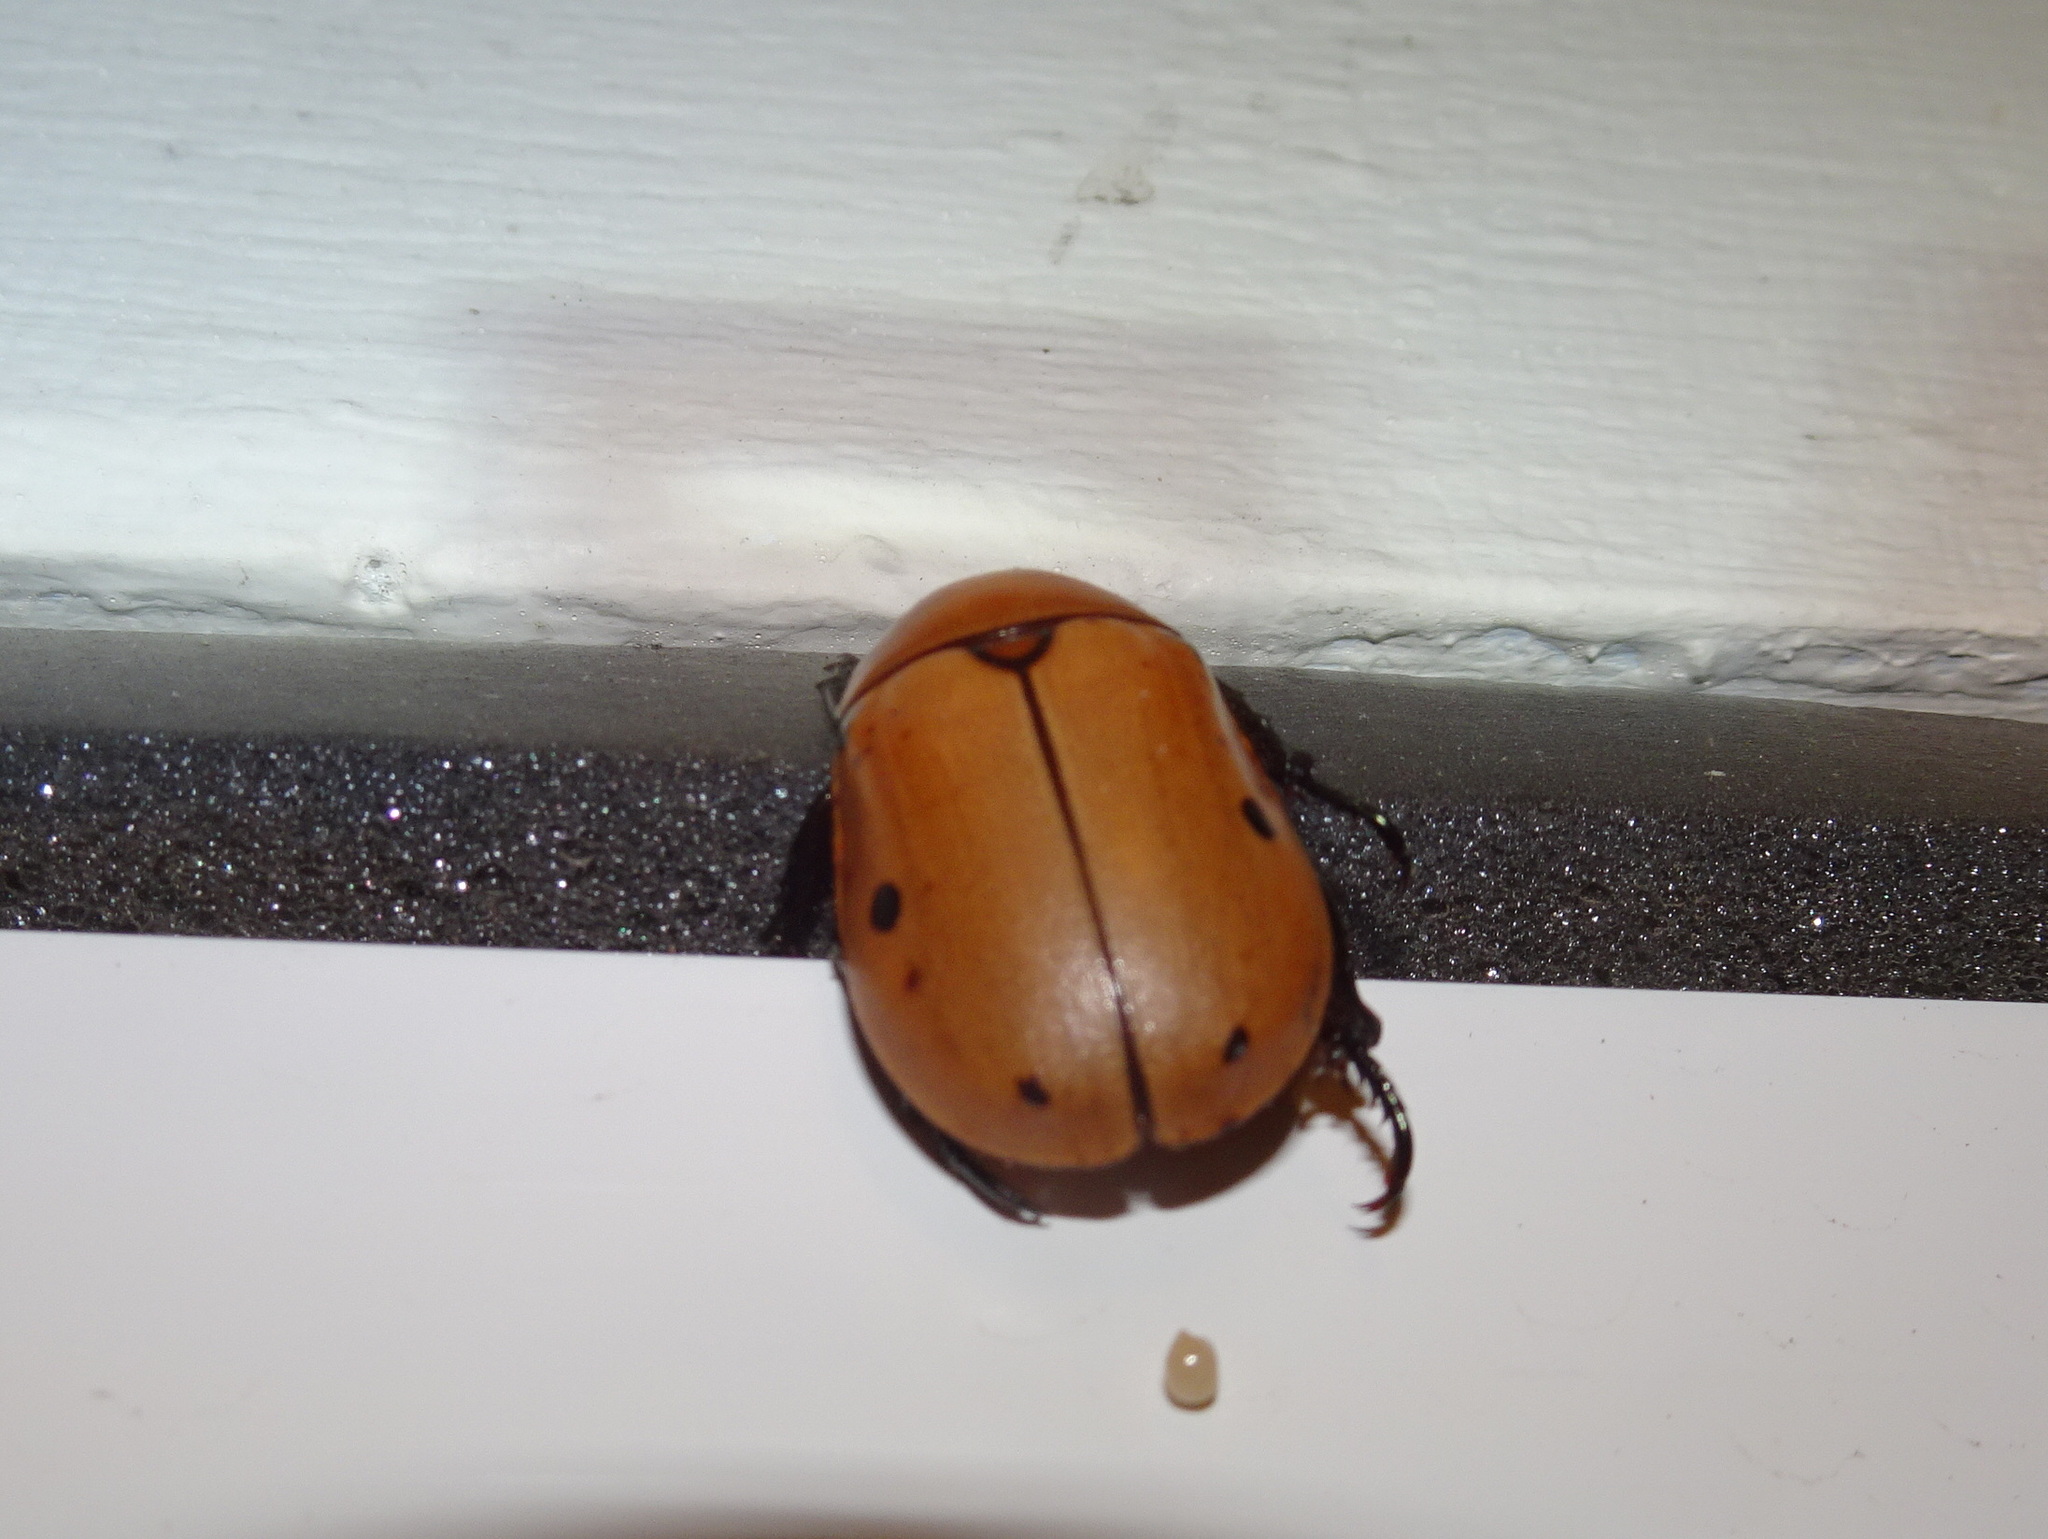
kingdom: Animalia
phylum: Arthropoda
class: Insecta
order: Coleoptera
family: Scarabaeidae
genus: Pelidnota
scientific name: Pelidnota punctata
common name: Grapevine beetle
